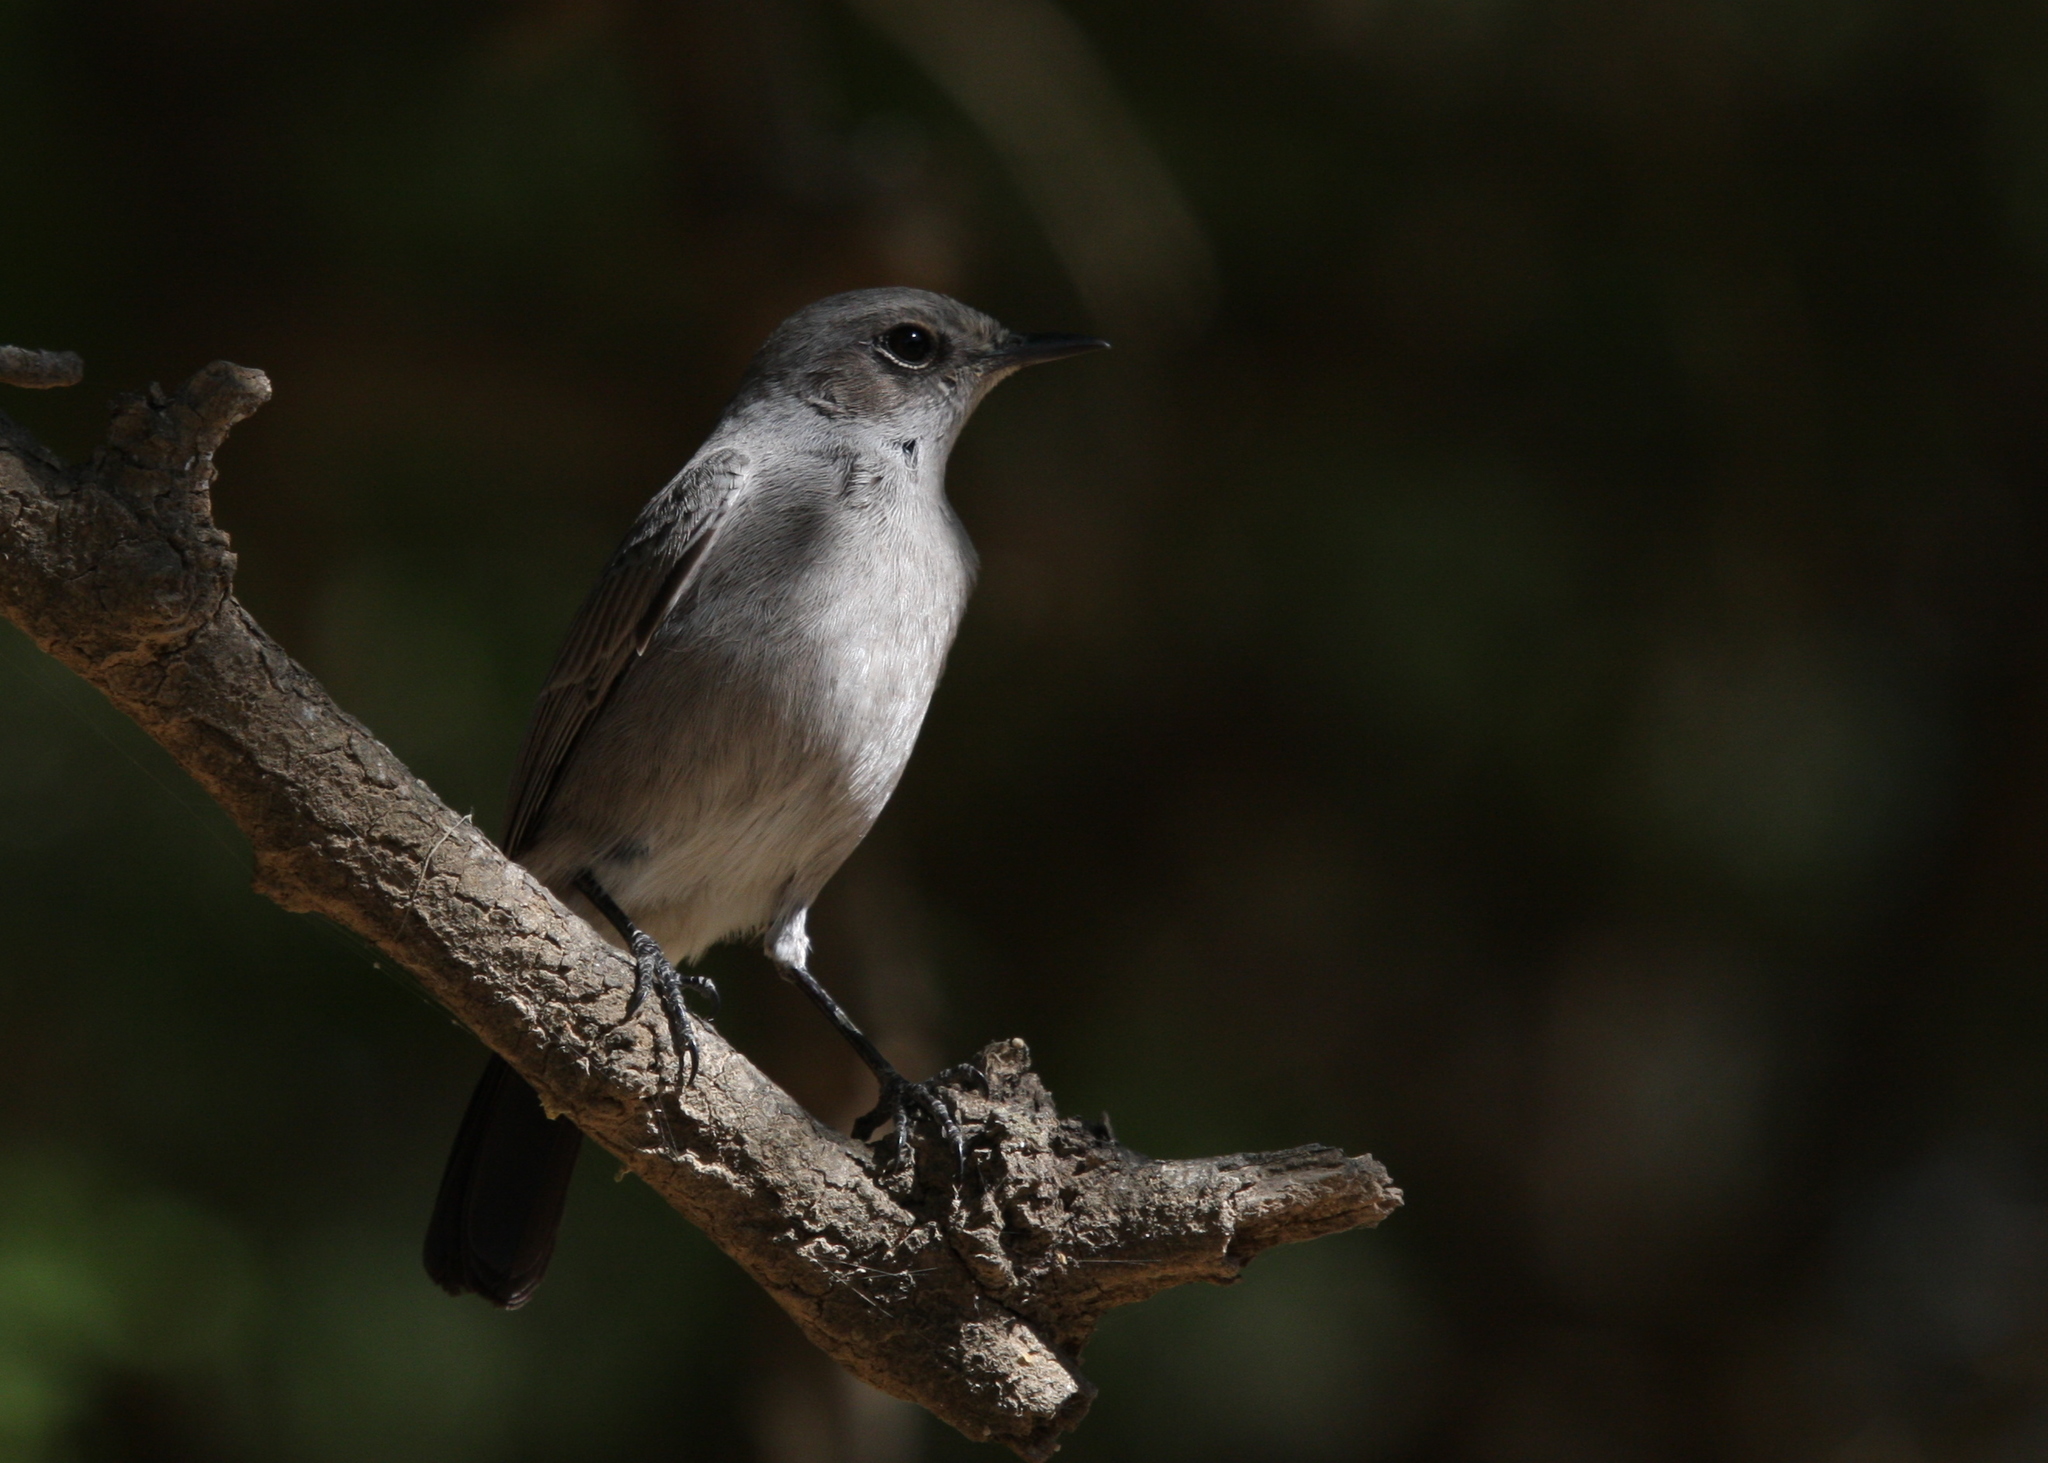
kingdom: Animalia
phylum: Chordata
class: Aves
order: Passeriformes
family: Muscicapidae
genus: Oenanthe
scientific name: Oenanthe melanura
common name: Blackstart
